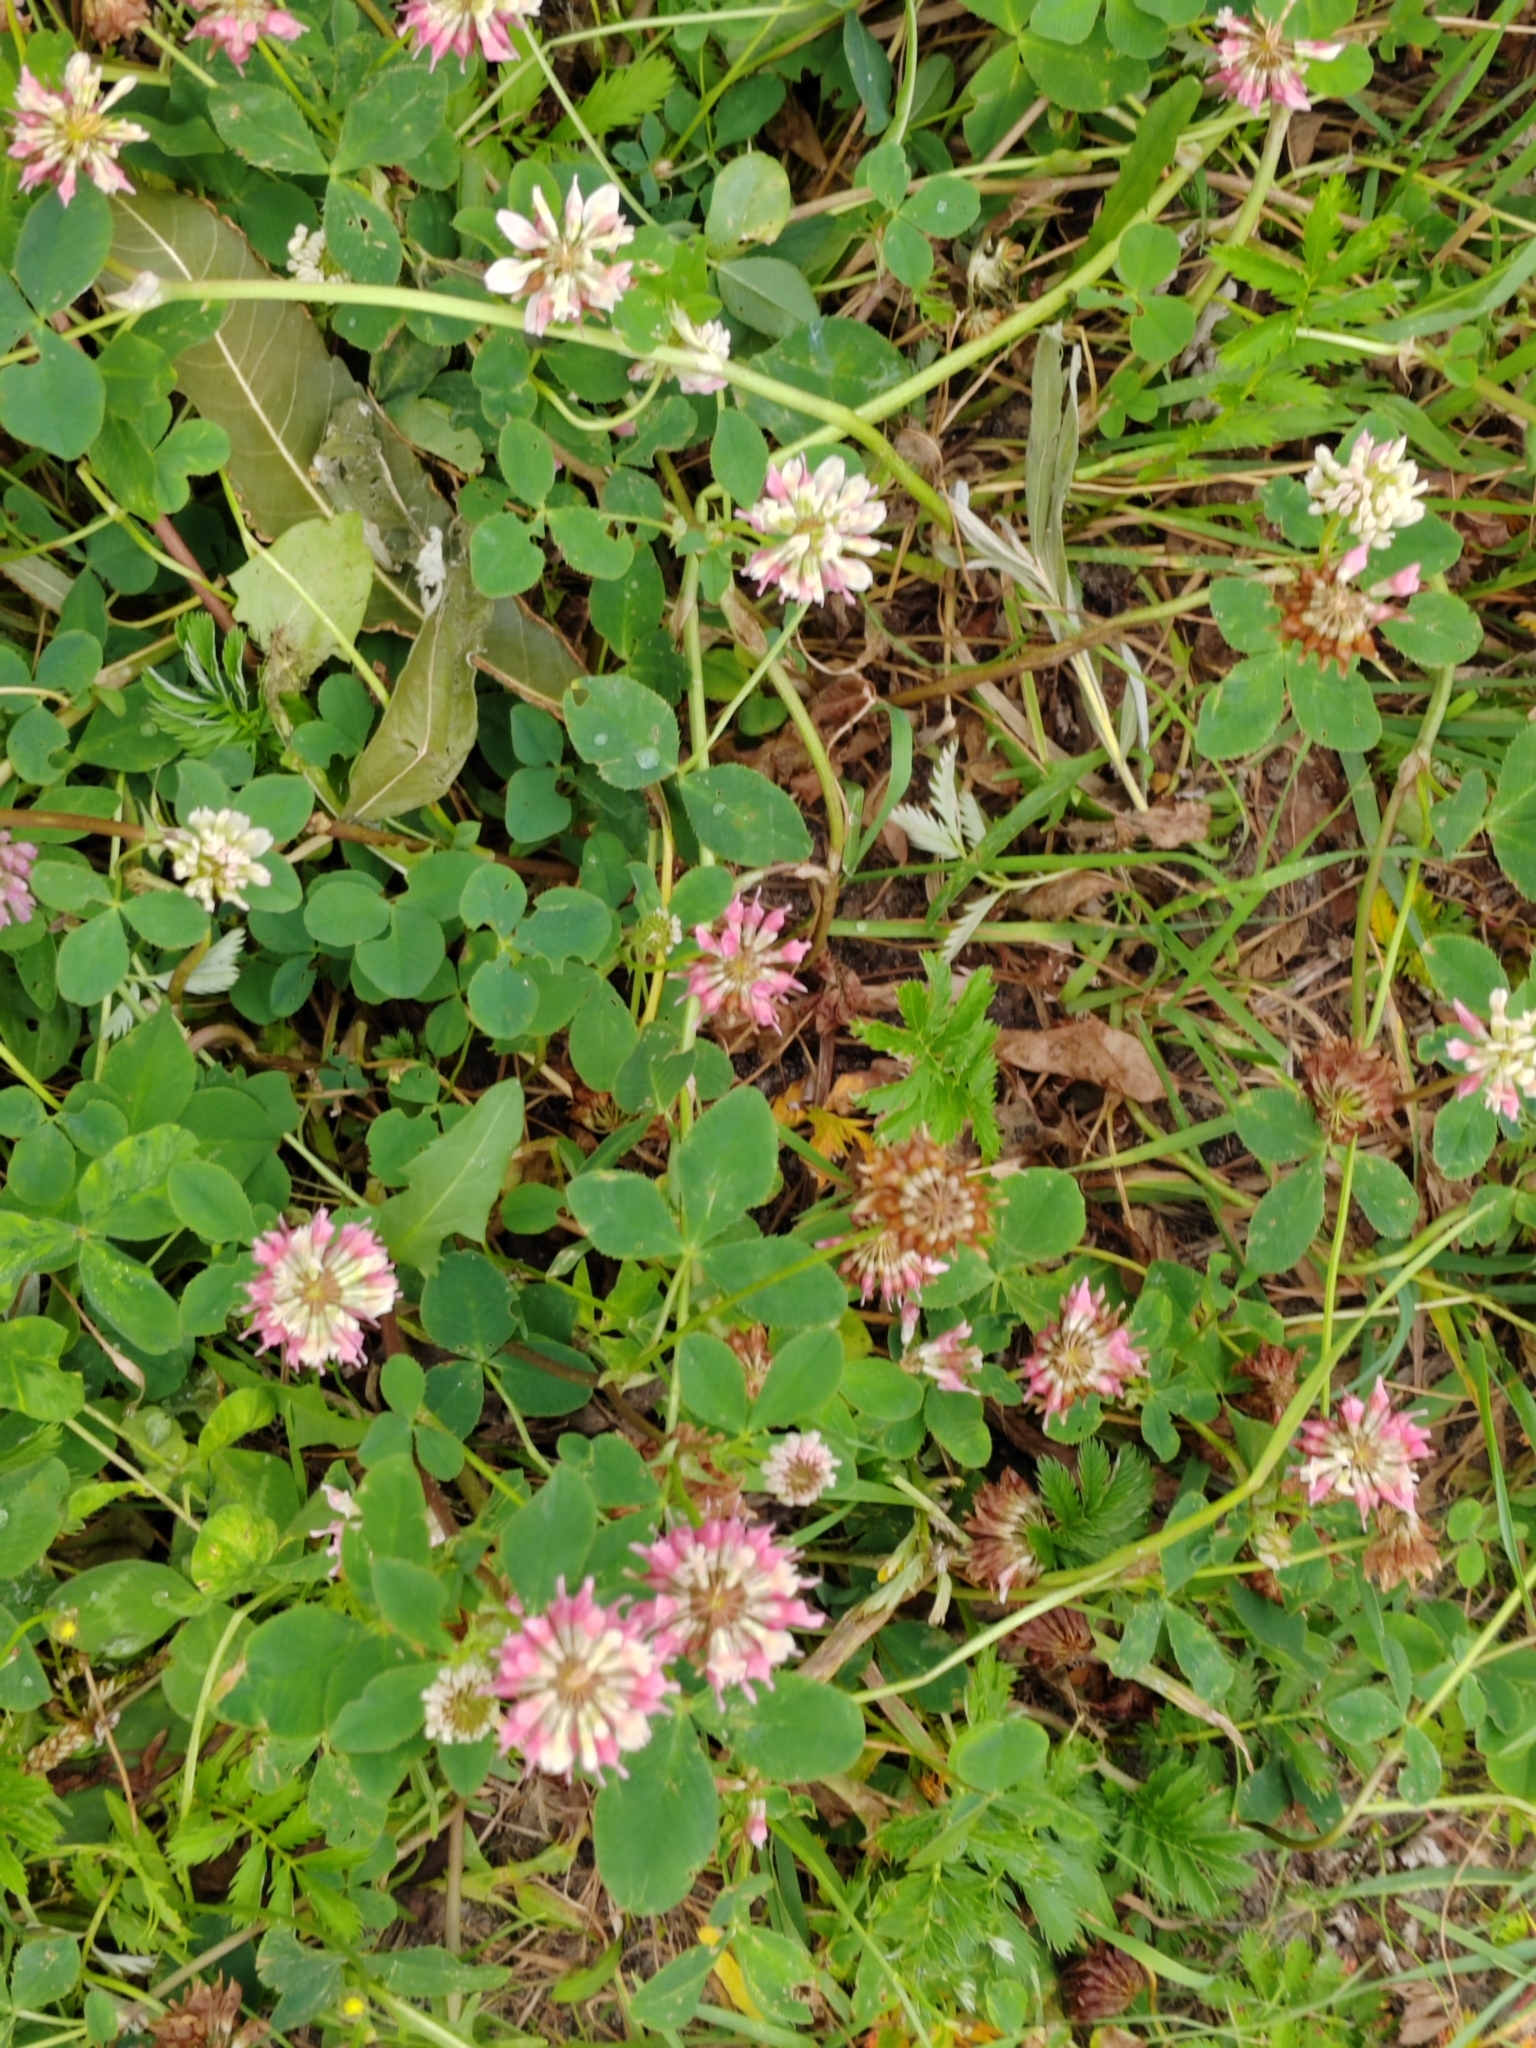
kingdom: Plantae
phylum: Tracheophyta
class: Magnoliopsida
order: Fabales
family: Fabaceae
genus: Trifolium
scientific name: Trifolium hybridum
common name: Alsike clover
